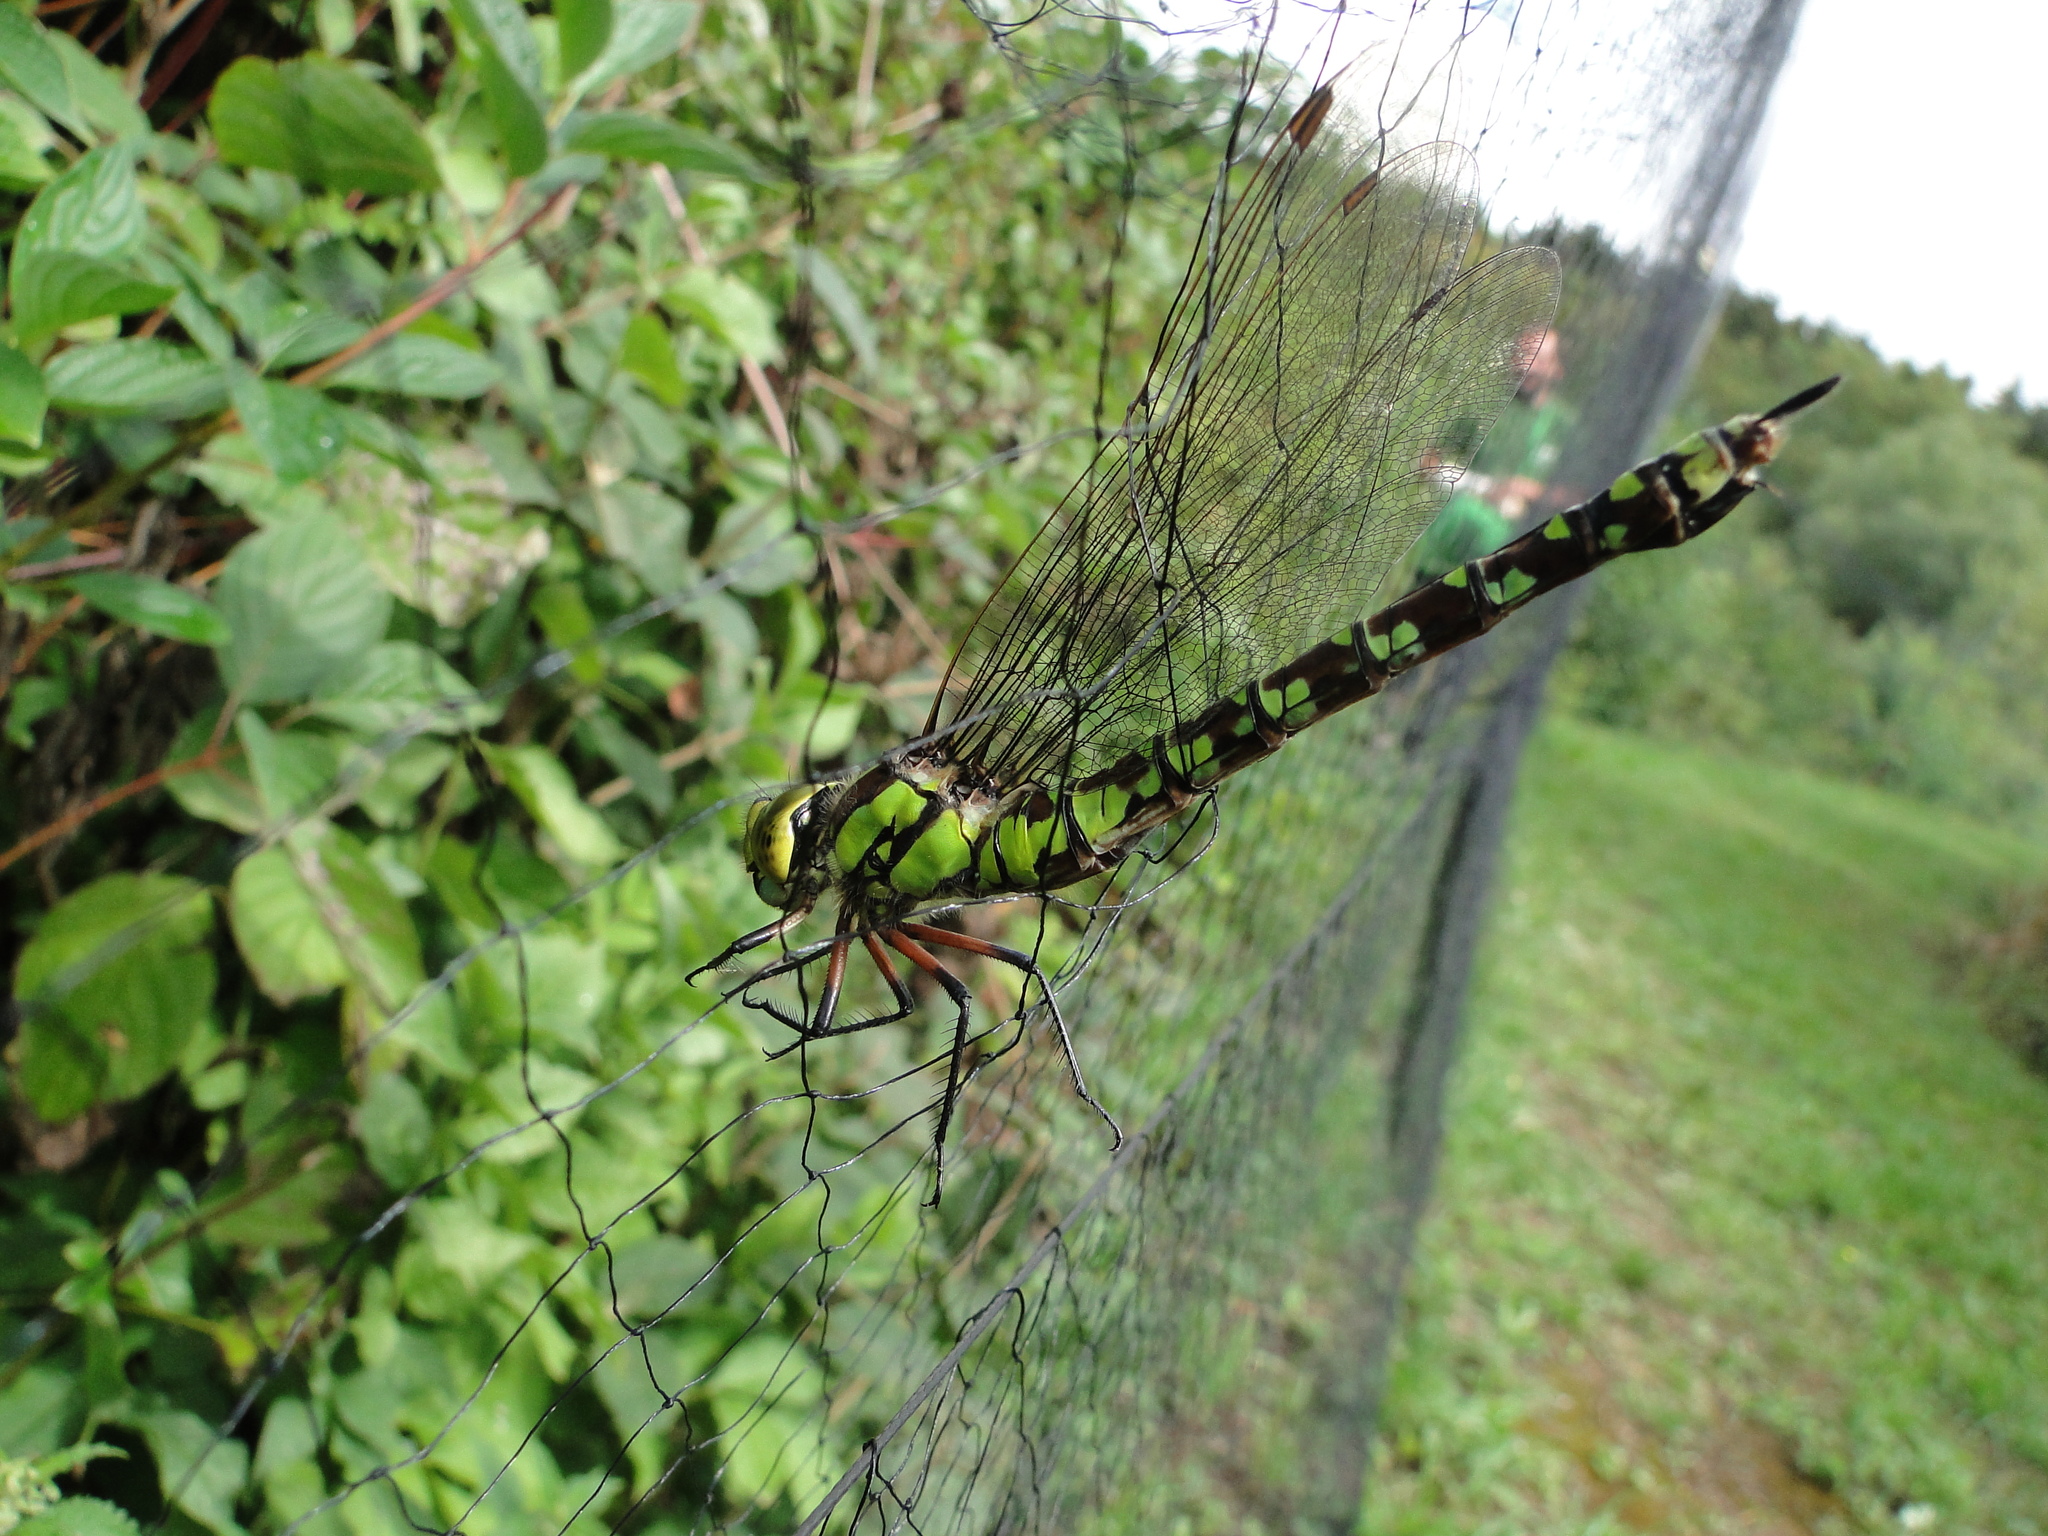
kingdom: Animalia
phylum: Arthropoda
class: Insecta
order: Odonata
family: Aeshnidae
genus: Aeshna
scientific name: Aeshna cyanea
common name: Southern hawker
